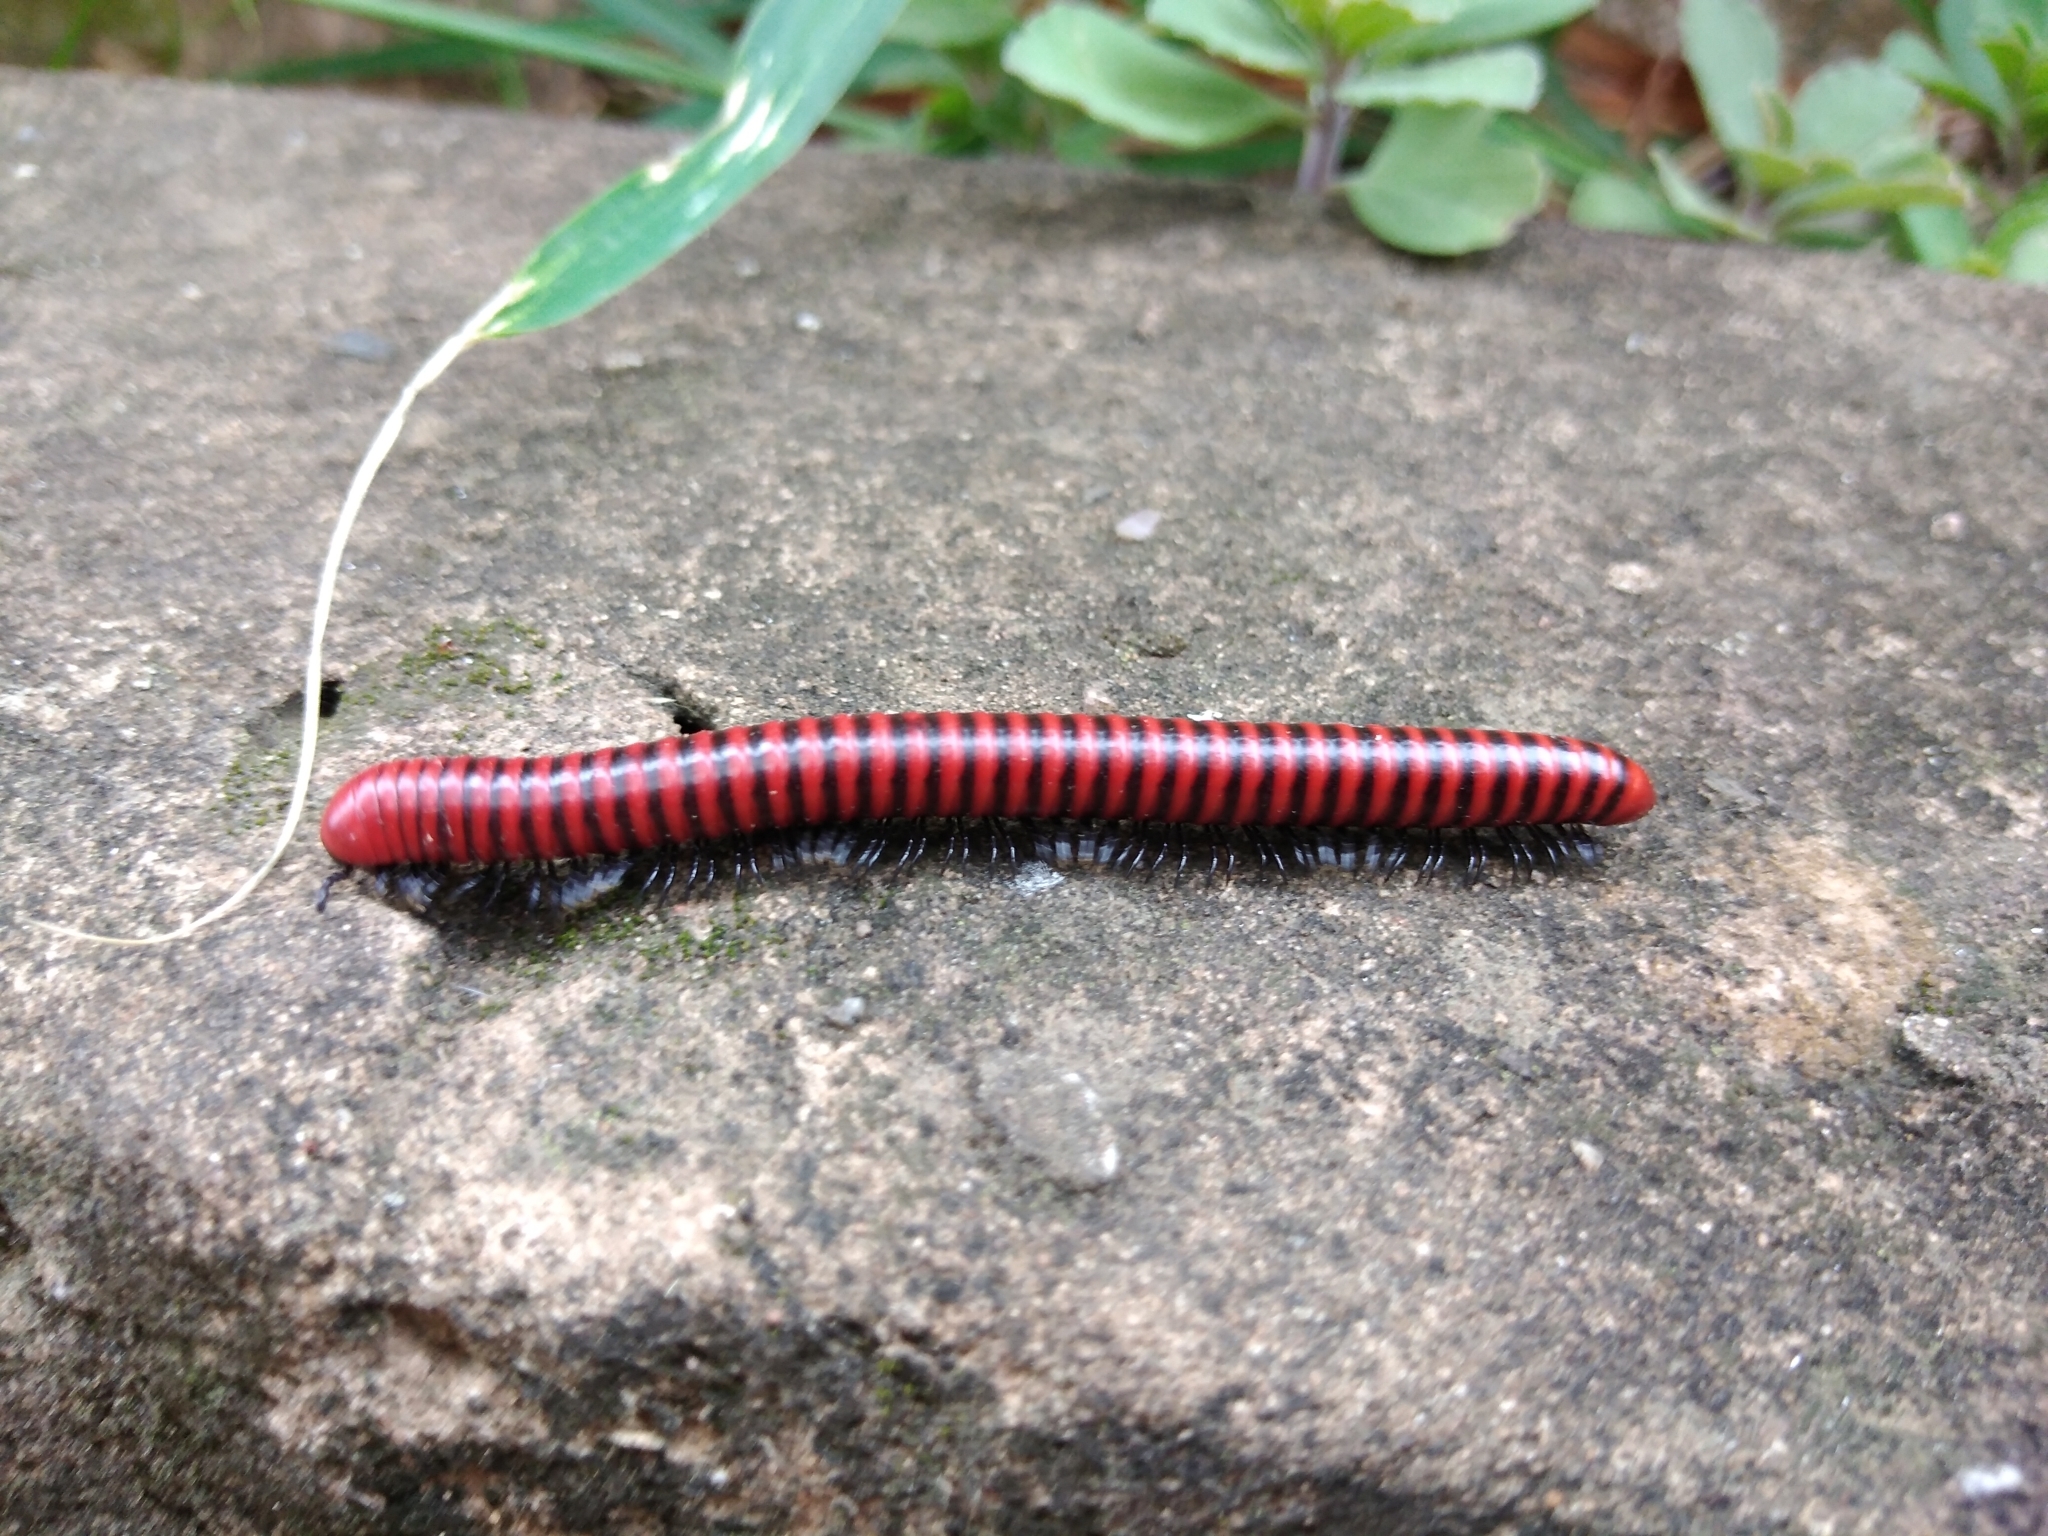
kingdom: Animalia
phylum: Arthropoda
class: Diplopoda
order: Spirobolida
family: Pachybolidae
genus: Centrobolus
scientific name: Centrobolus anulatus
